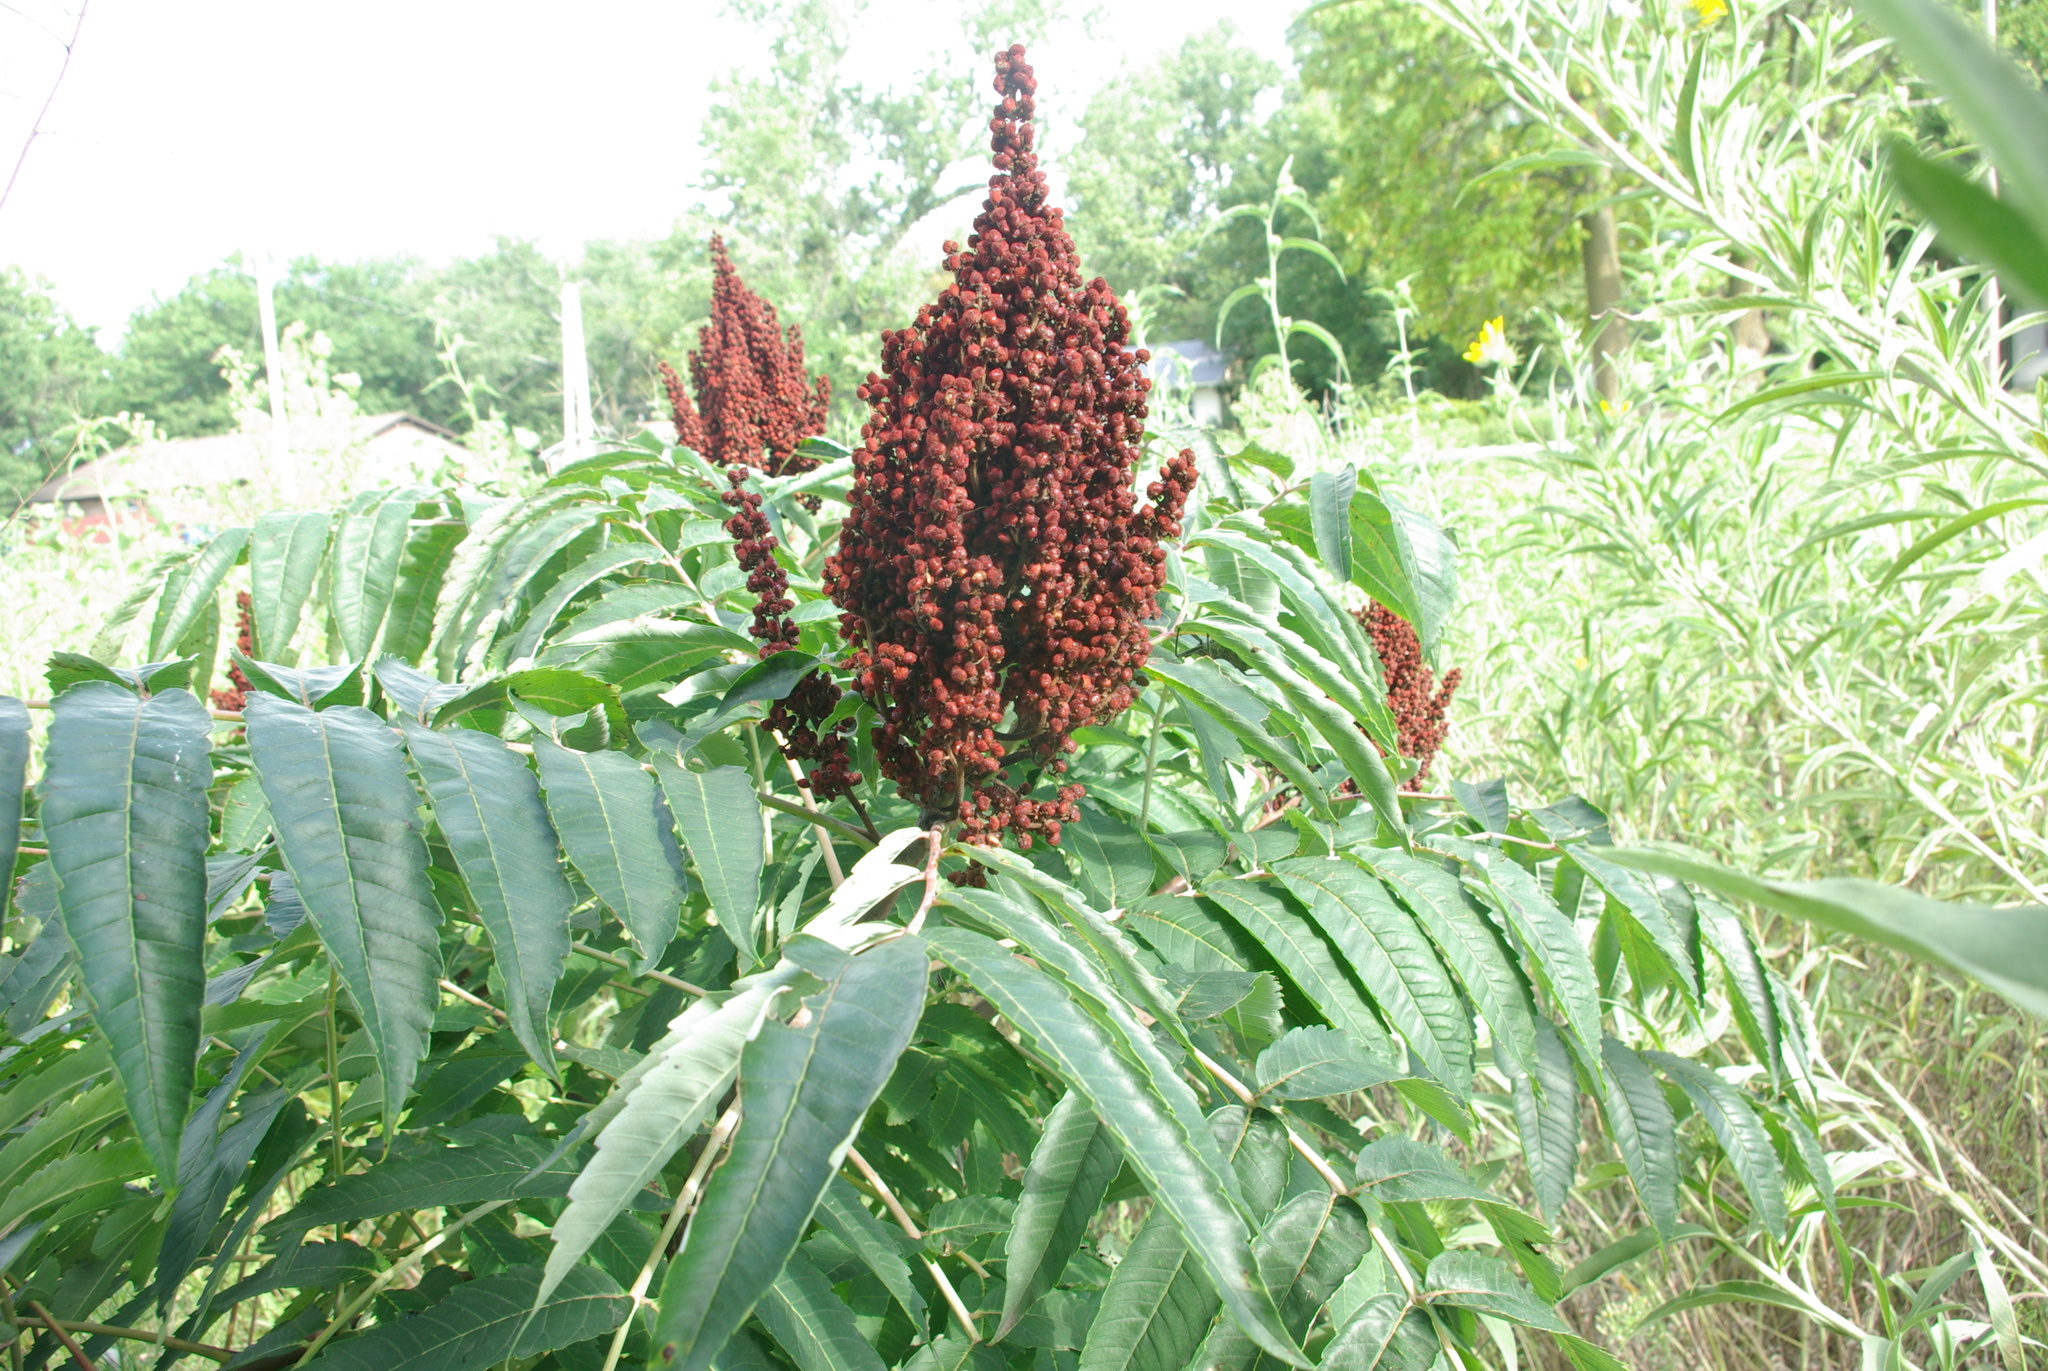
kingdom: Plantae
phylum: Tracheophyta
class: Magnoliopsida
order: Sapindales
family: Anacardiaceae
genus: Rhus
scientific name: Rhus glabra
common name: Scarlet sumac
